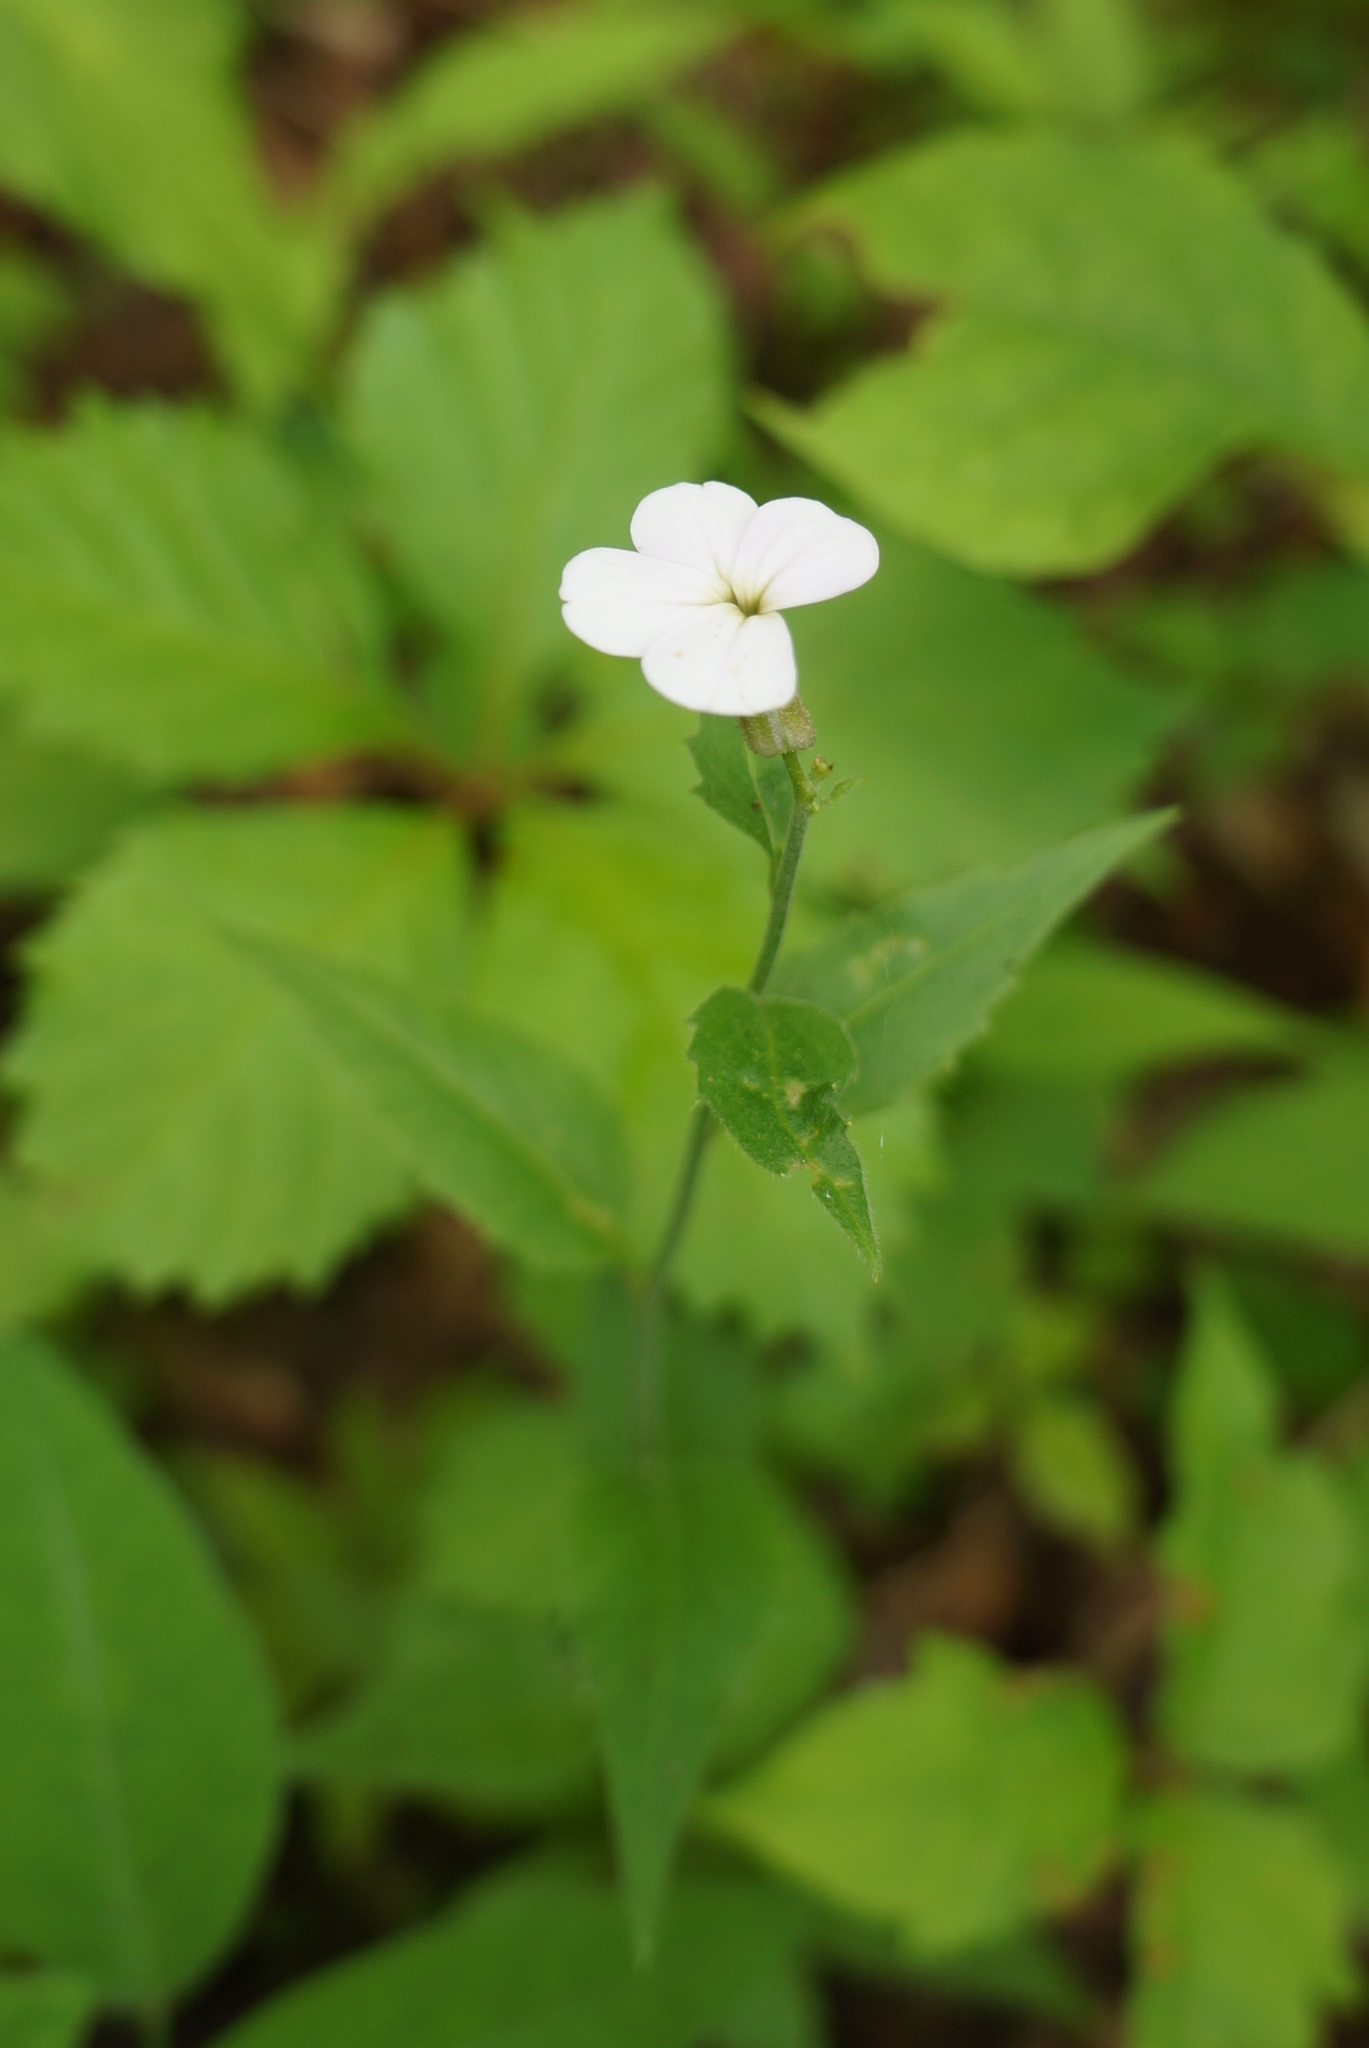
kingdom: Plantae
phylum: Tracheophyta
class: Magnoliopsida
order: Brassicales
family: Brassicaceae
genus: Hesperis
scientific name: Hesperis matronalis
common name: Dame's-violet
